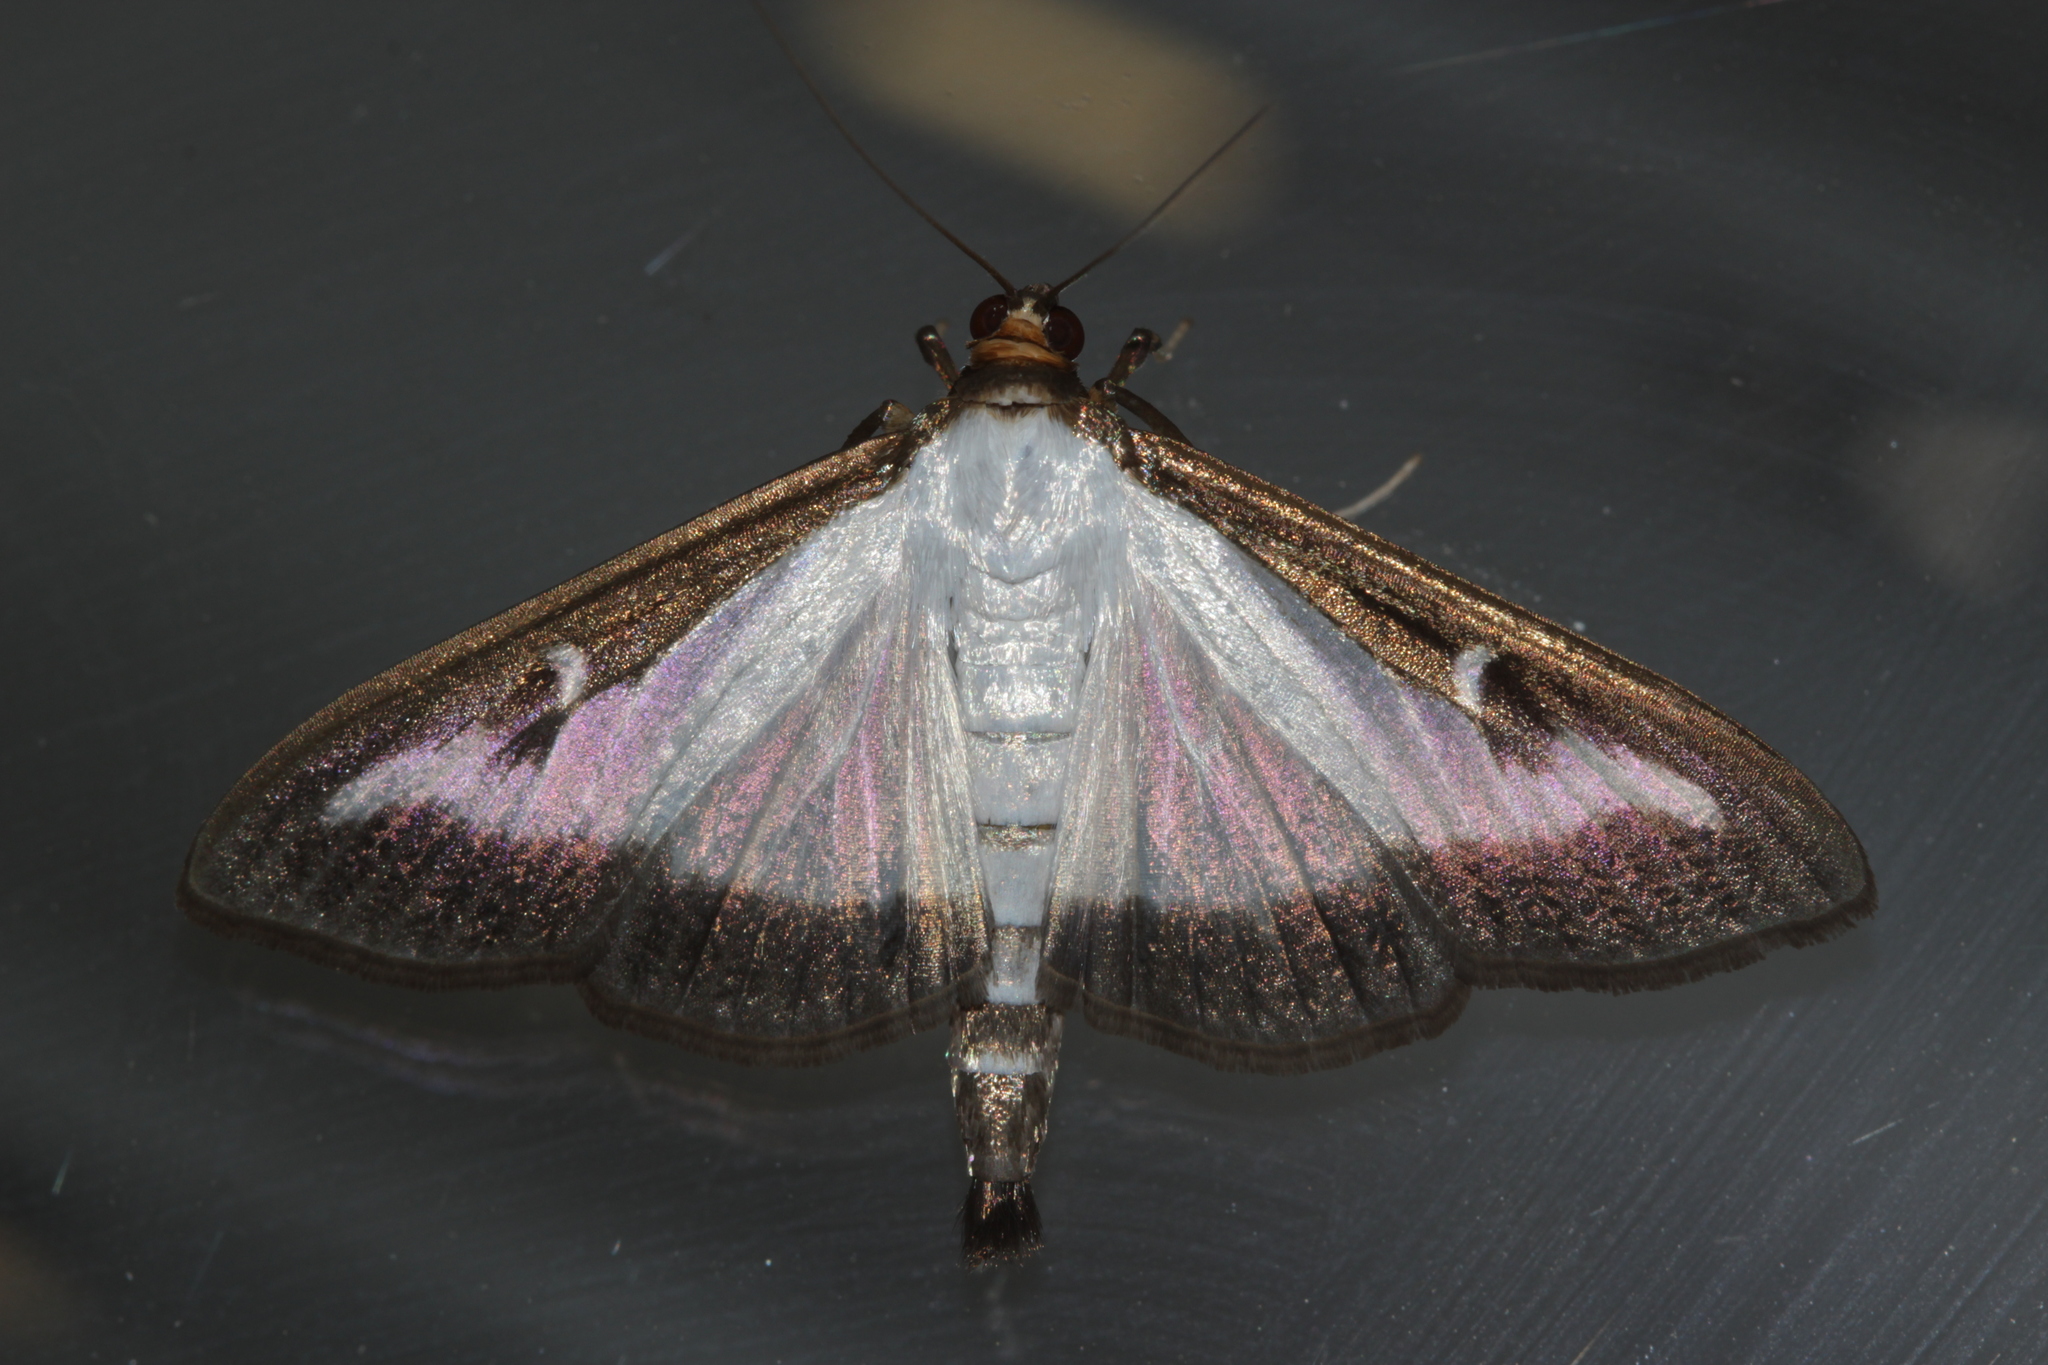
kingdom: Animalia
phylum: Arthropoda
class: Insecta
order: Lepidoptera
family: Crambidae
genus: Cydalima
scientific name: Cydalima perspectalis
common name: Box tree moth
